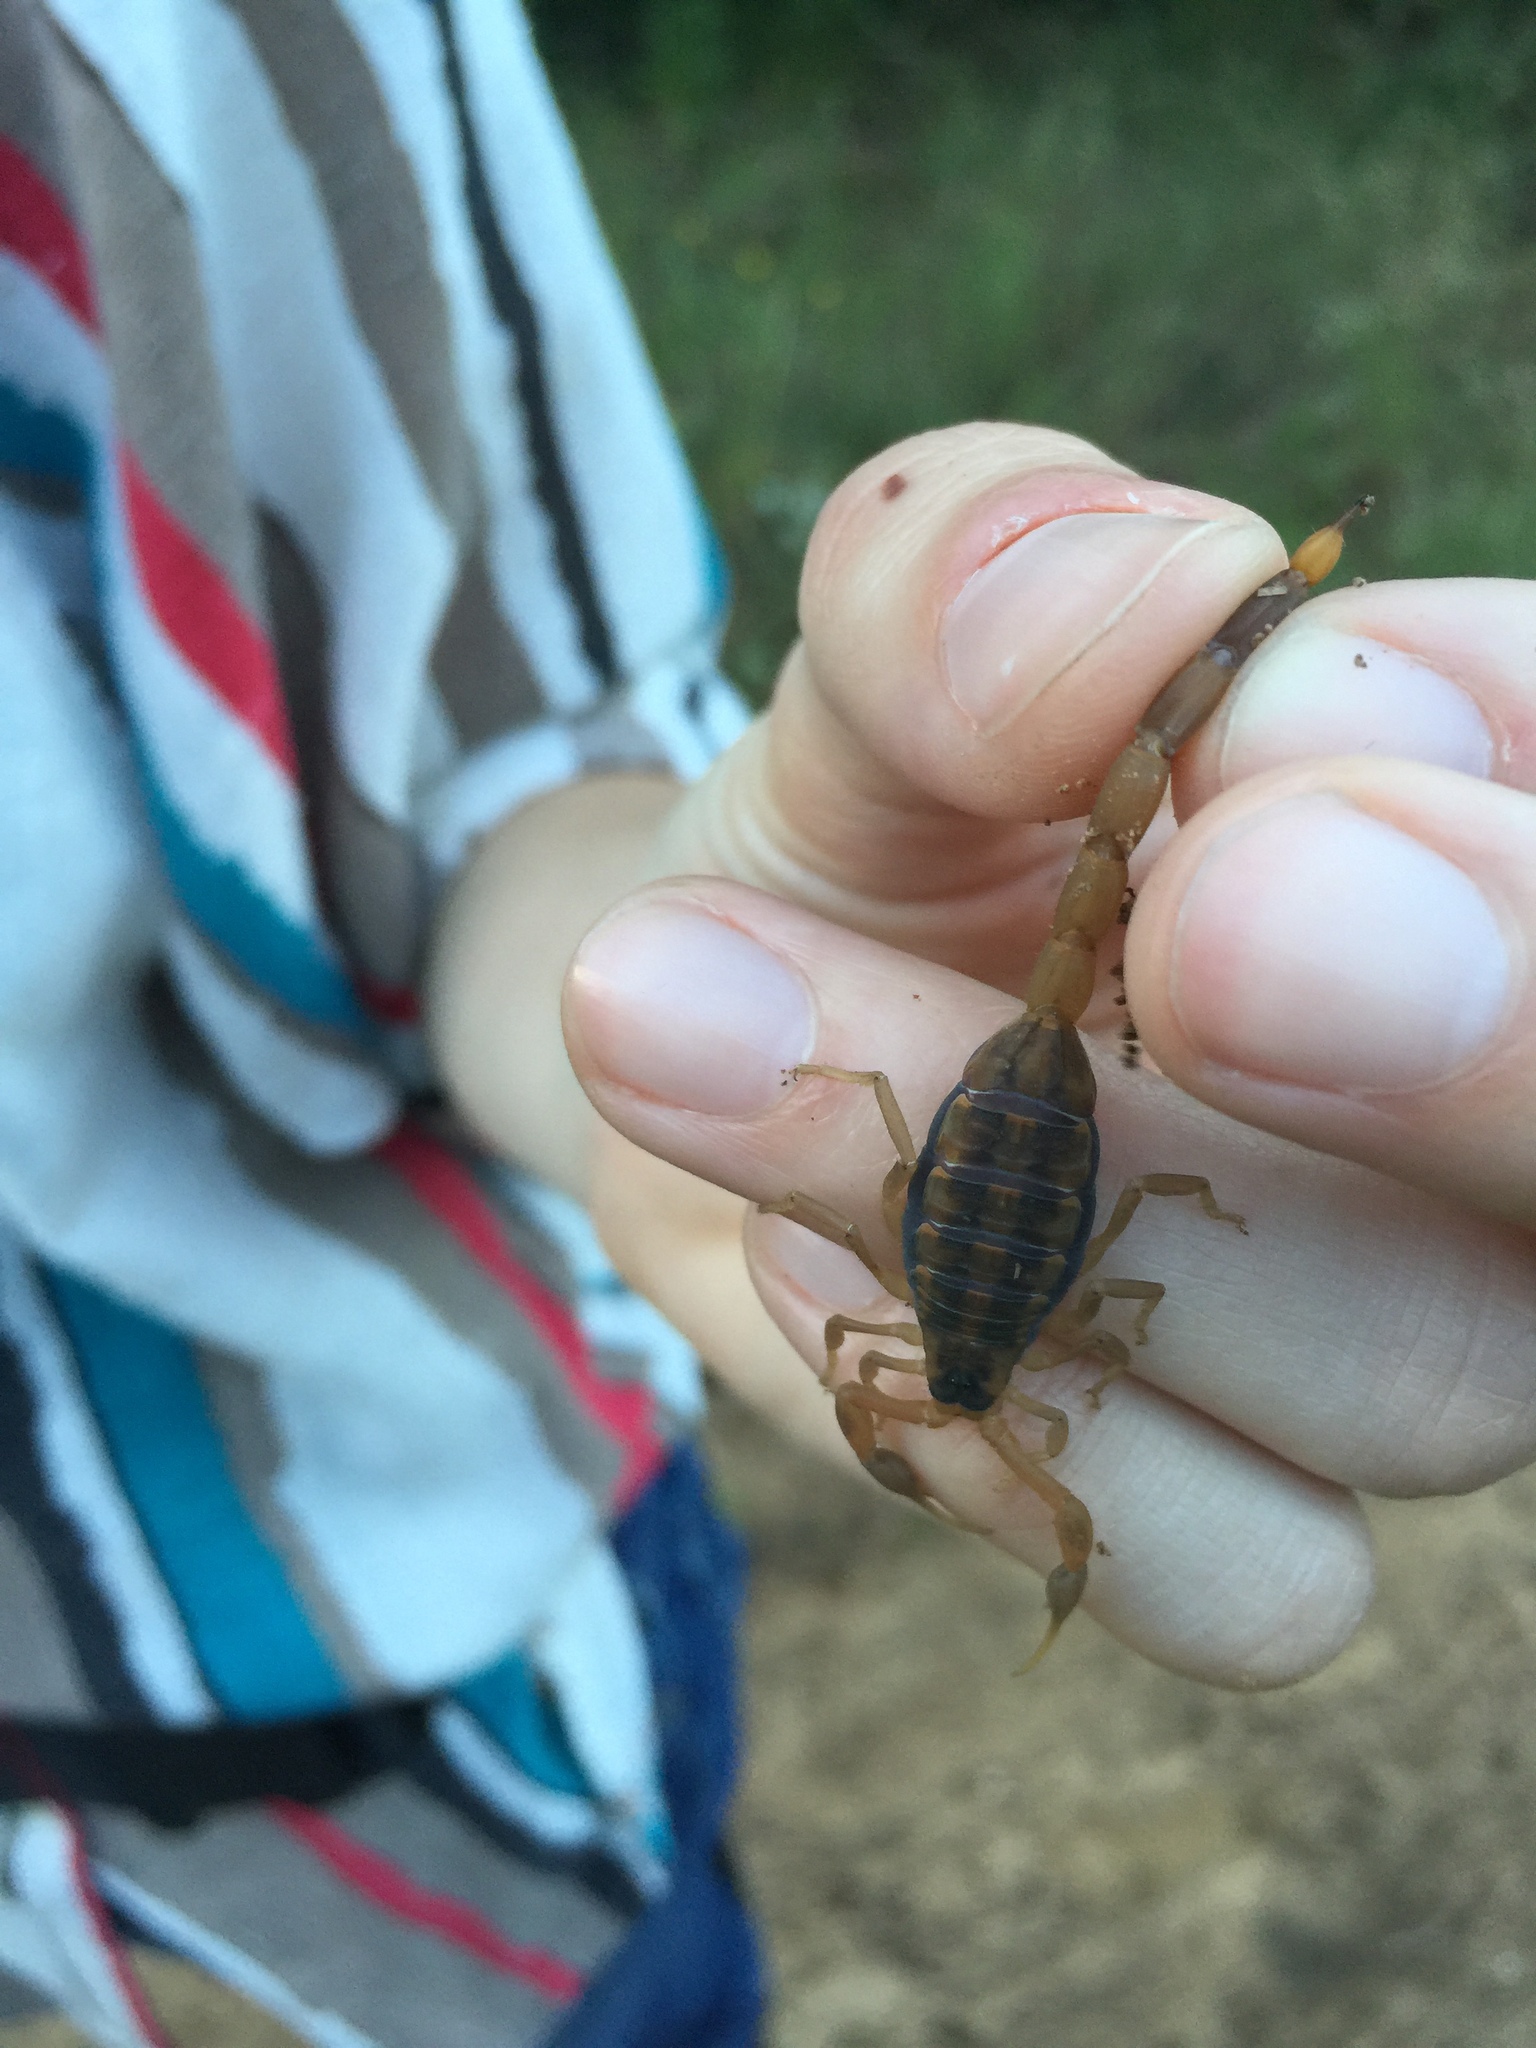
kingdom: Animalia
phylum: Arthropoda
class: Arachnida
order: Scorpiones
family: Buthidae
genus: Centruroides
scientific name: Centruroides vittatus
